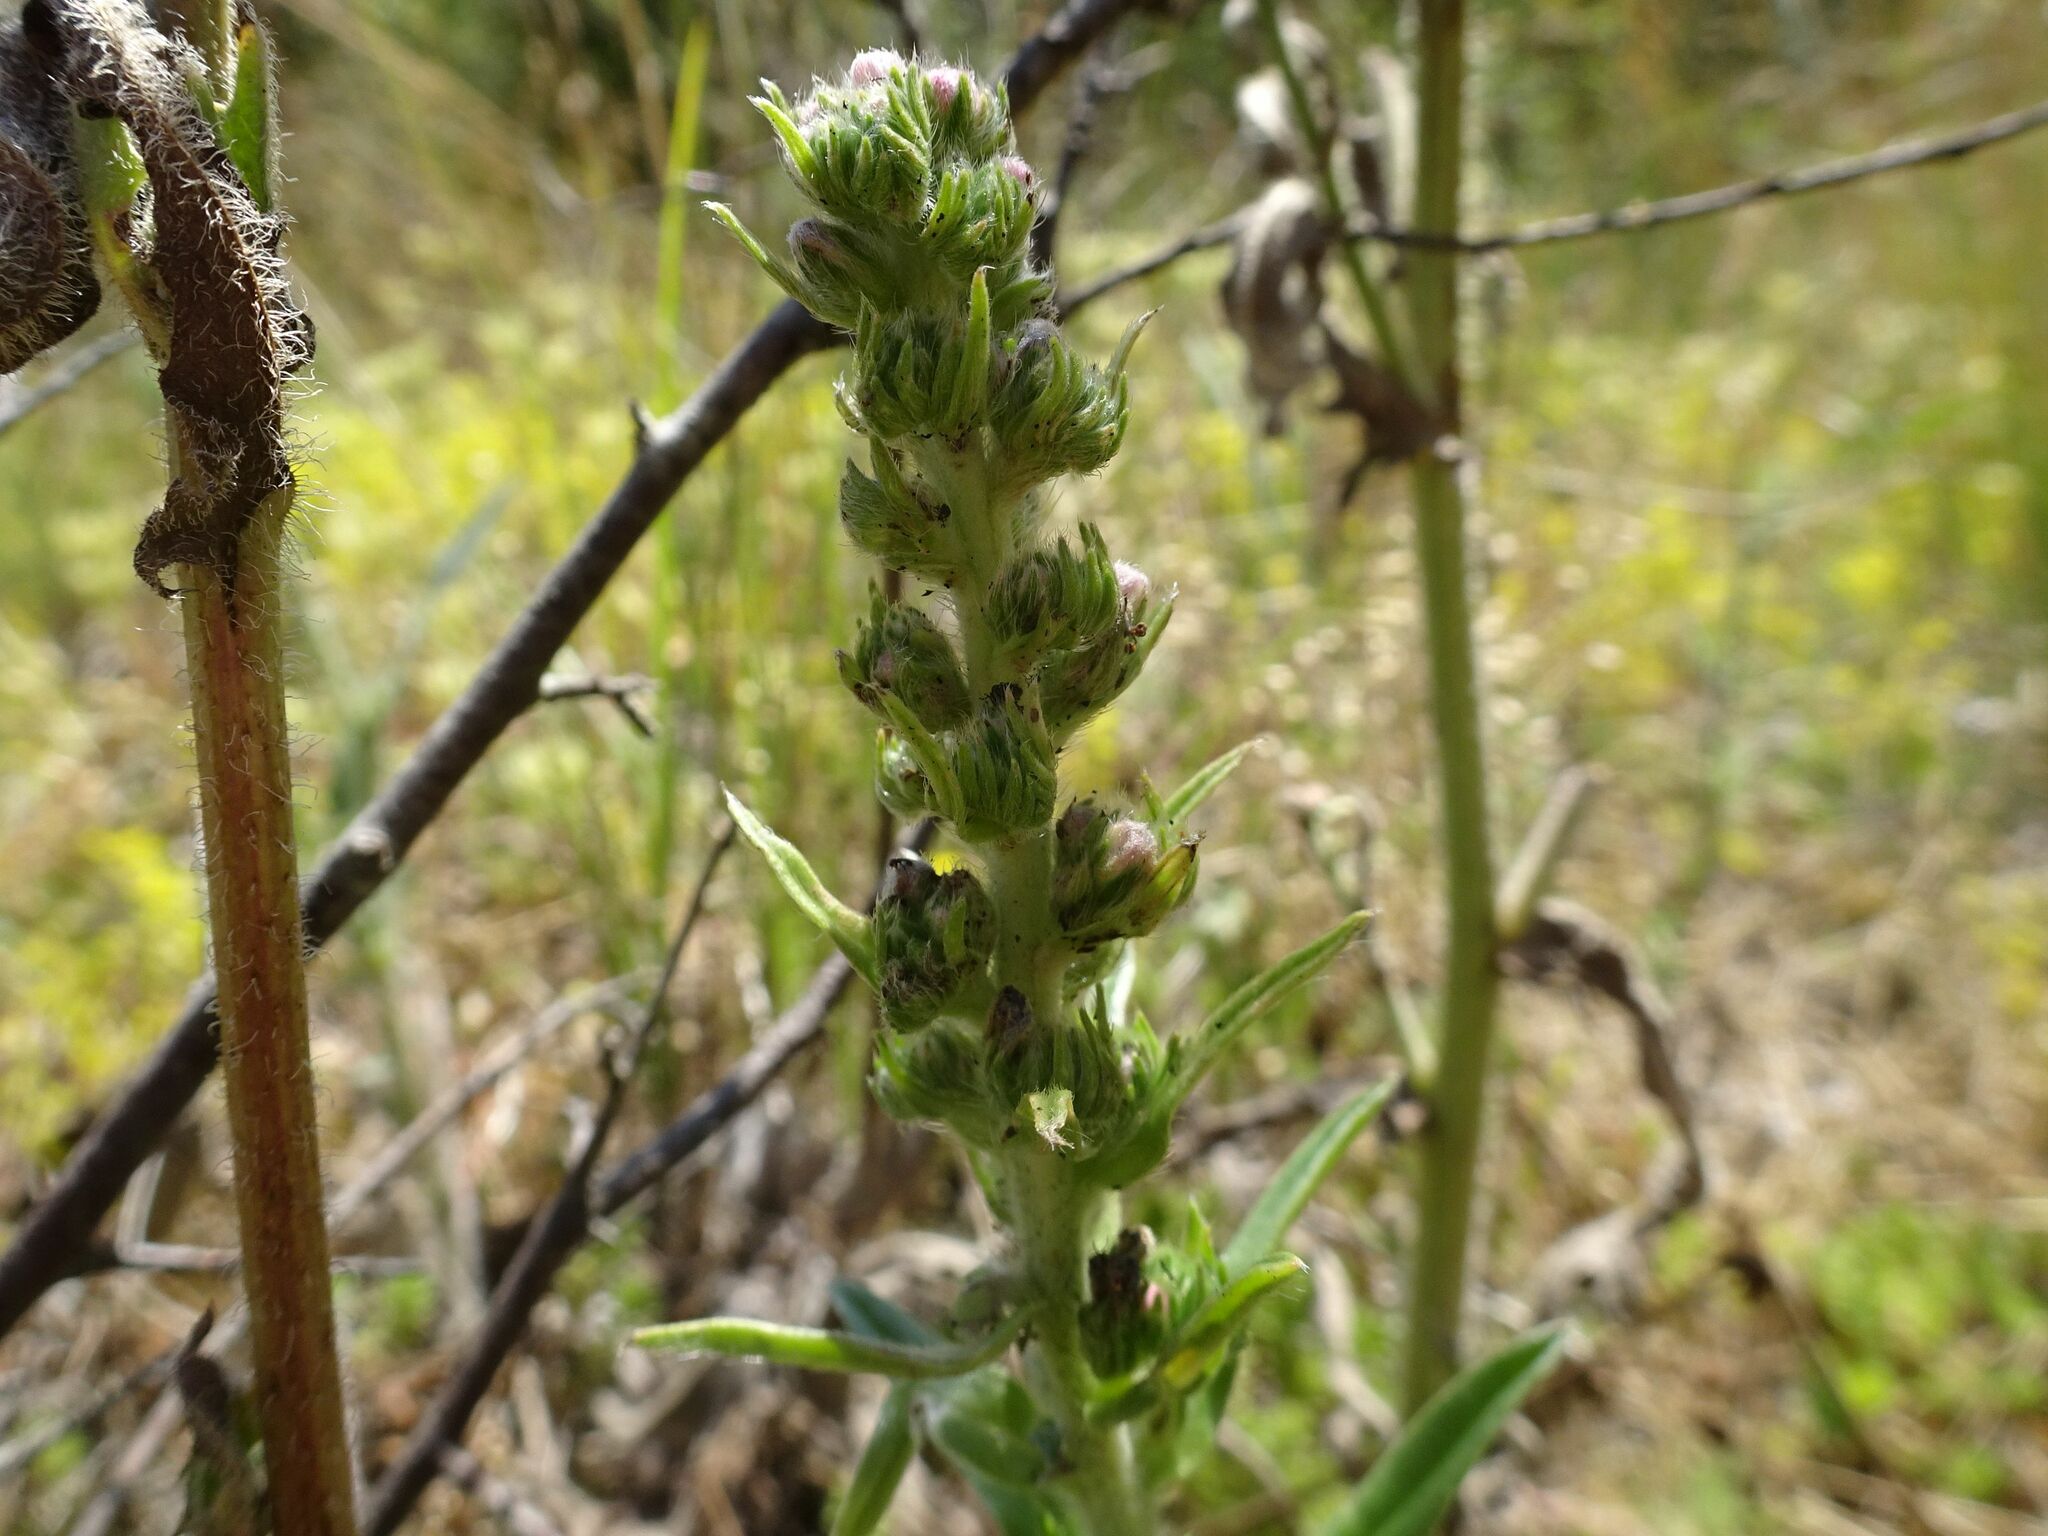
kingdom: Plantae
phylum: Tracheophyta
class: Magnoliopsida
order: Boraginales
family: Boraginaceae
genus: Echium
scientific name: Echium vulgare
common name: Common viper's bugloss
